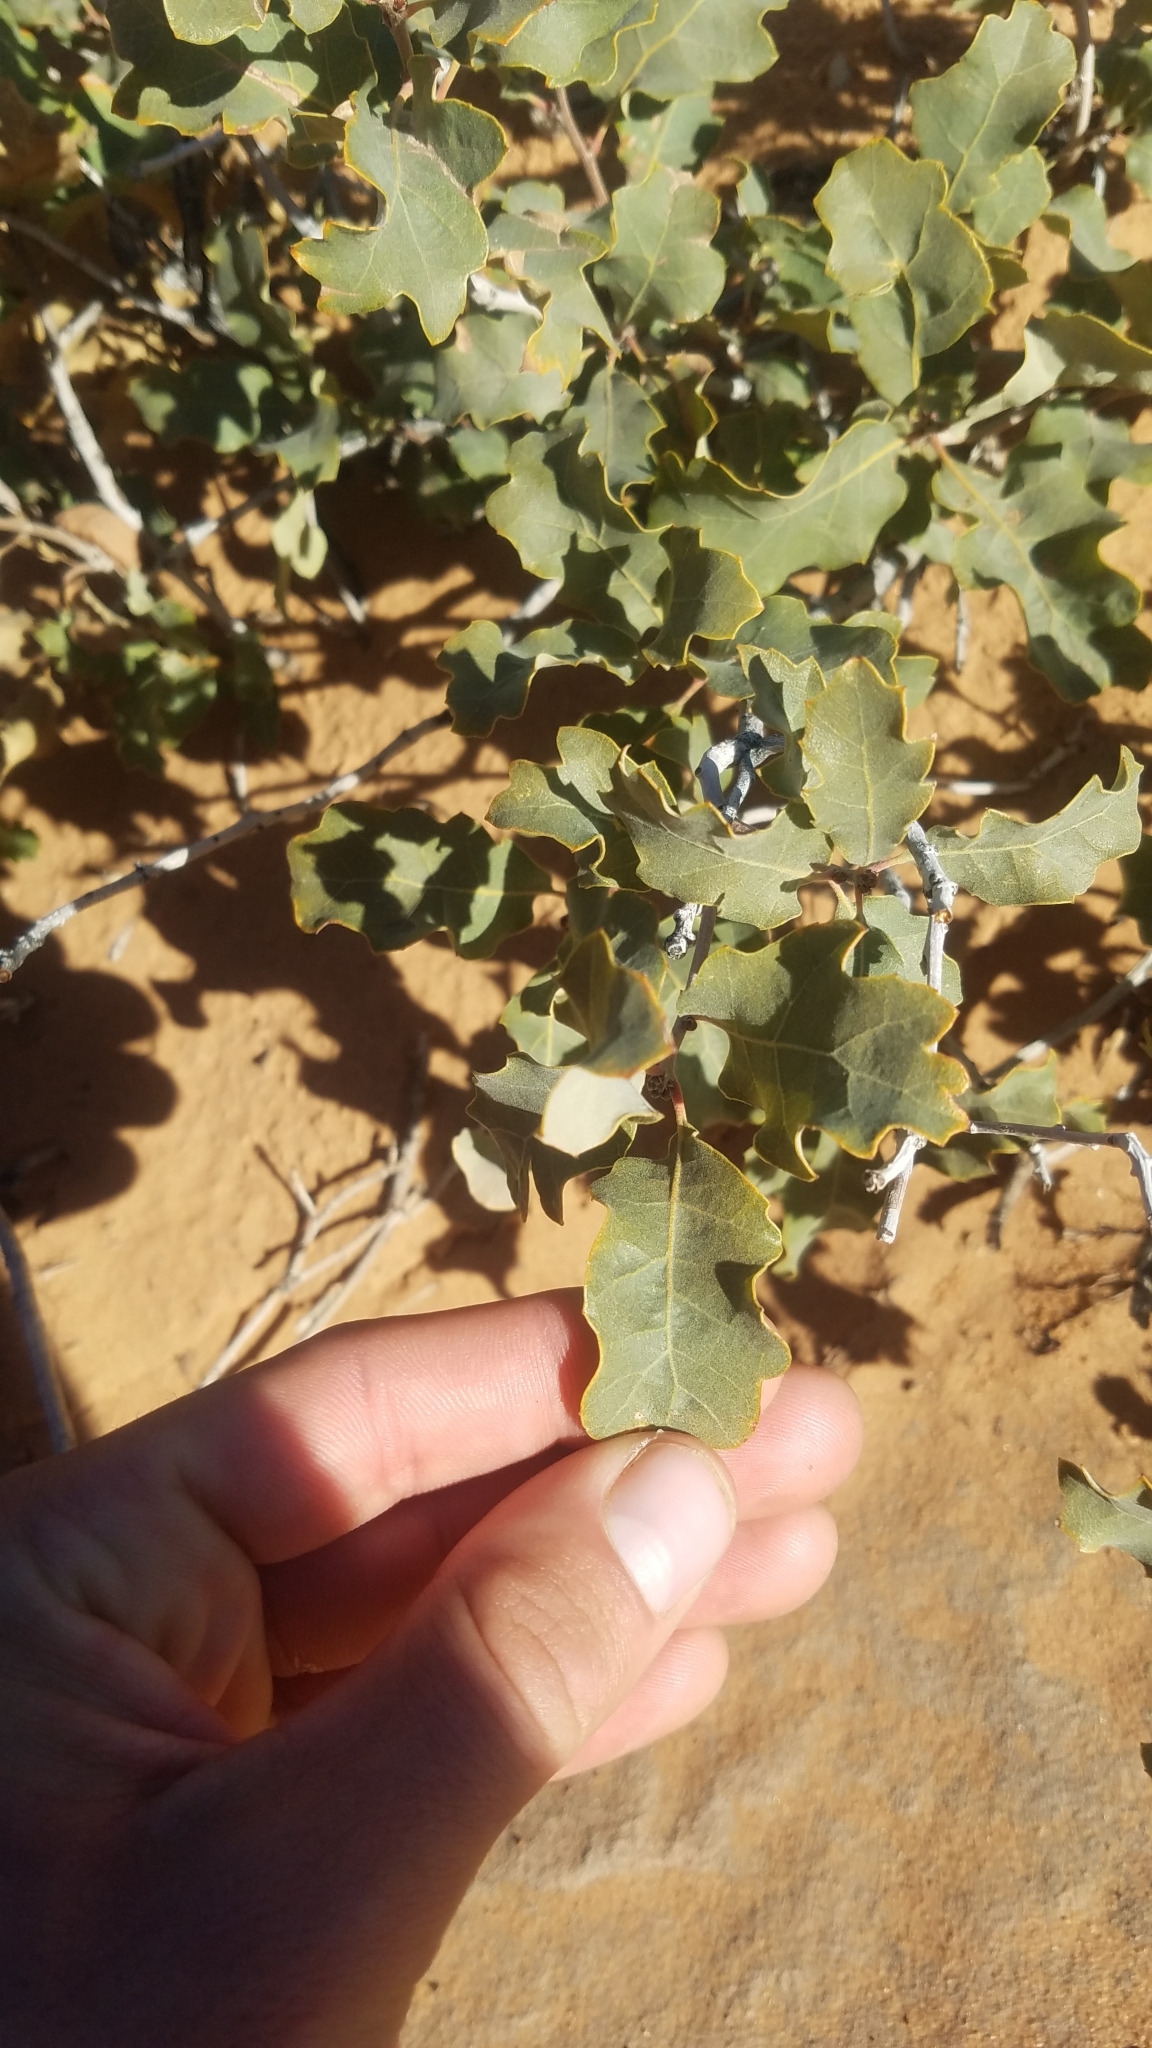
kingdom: Plantae
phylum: Tracheophyta
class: Magnoliopsida
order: Fagales
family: Fagaceae
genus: Quercus
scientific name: Quercus welshii
